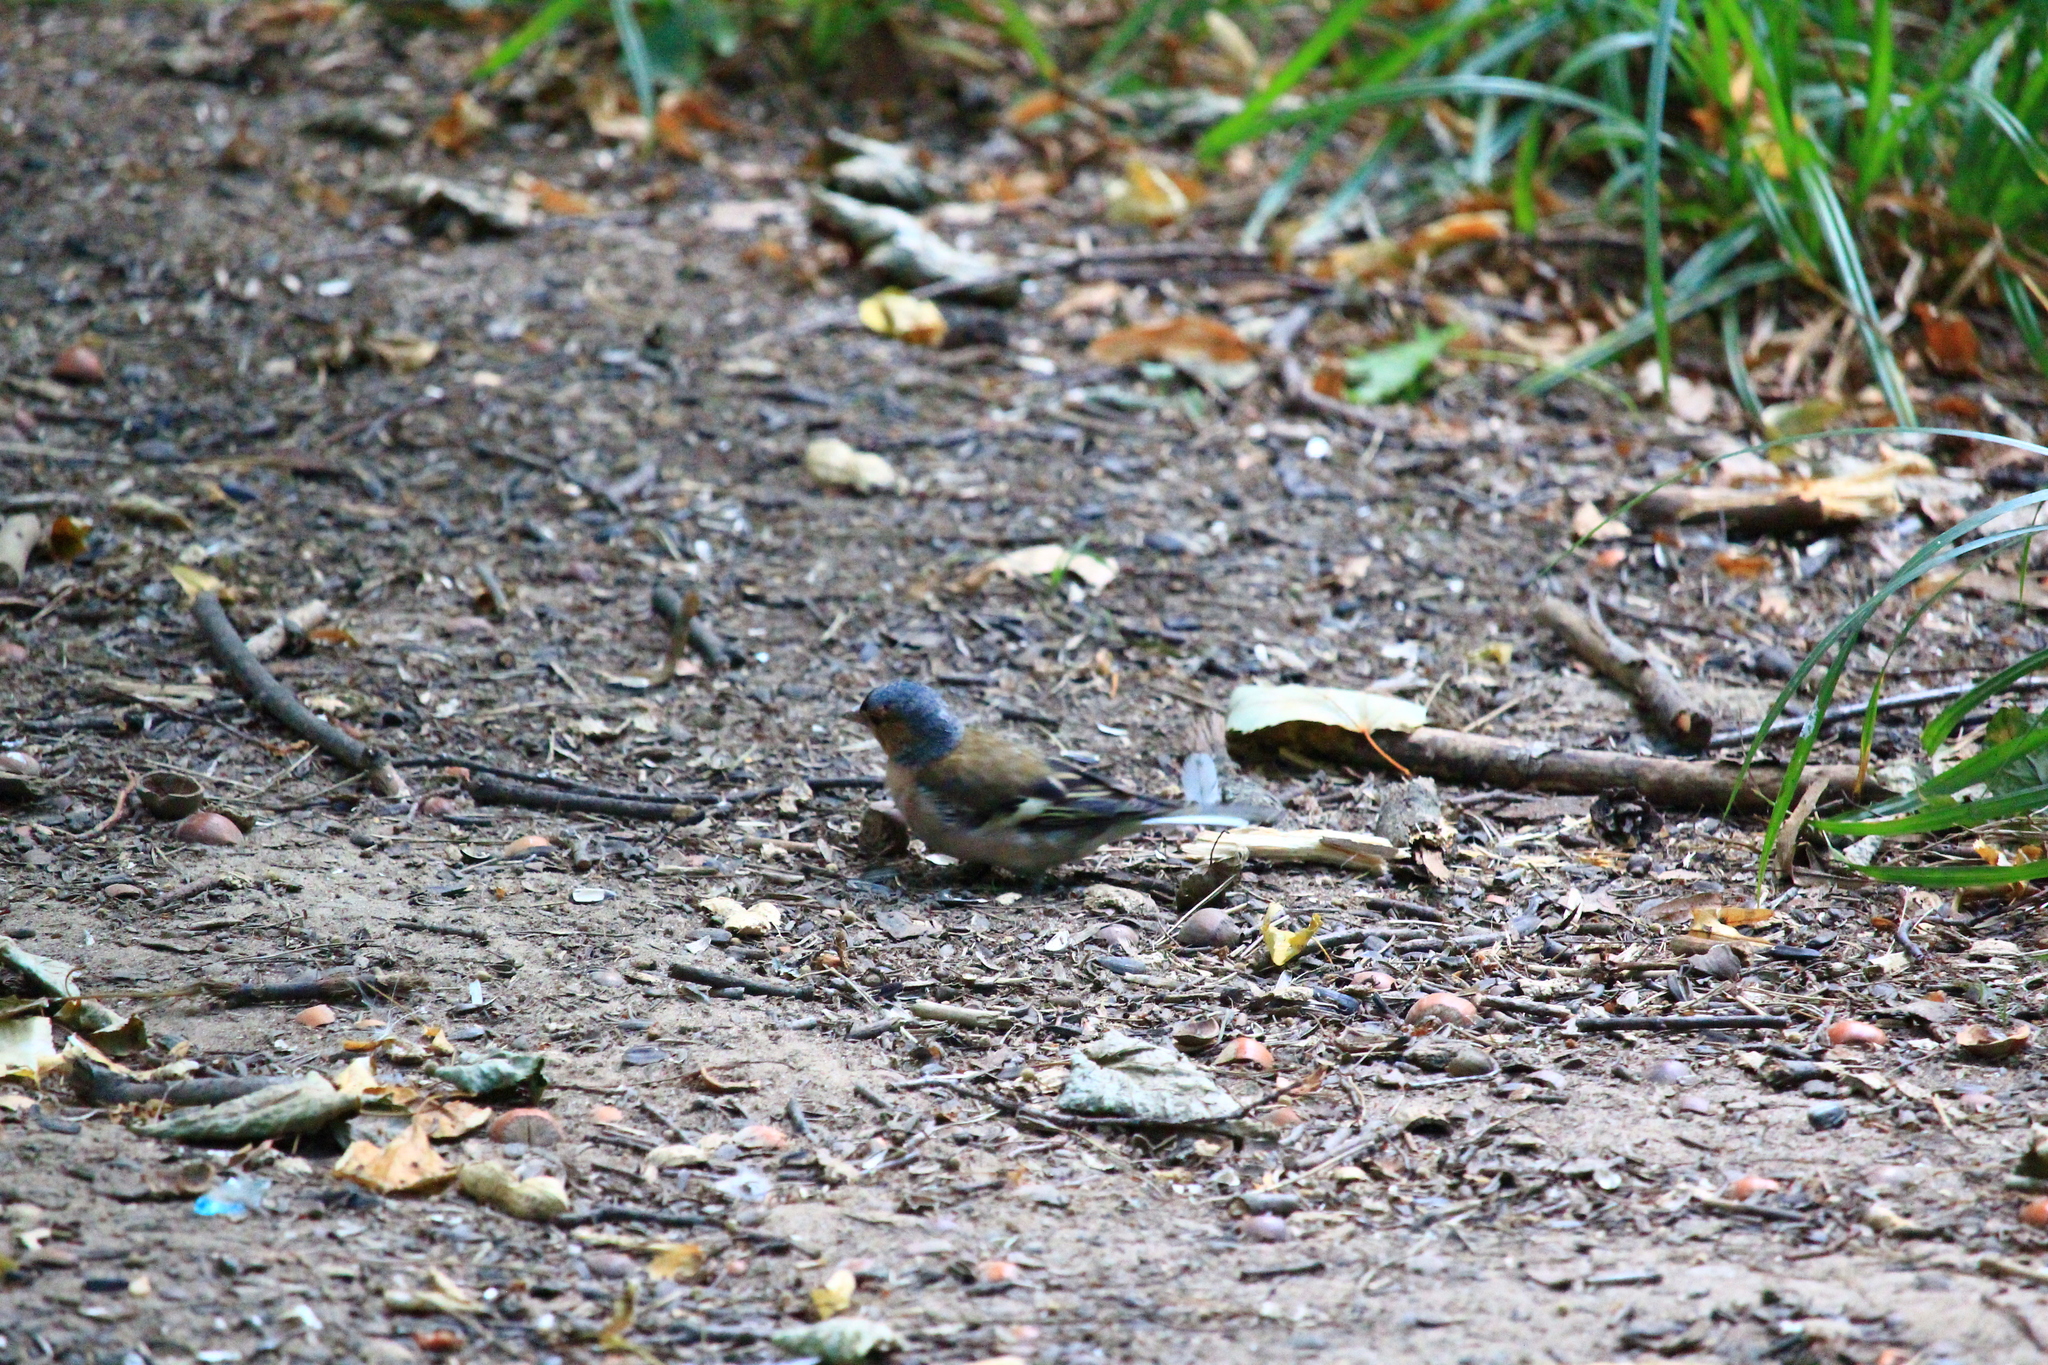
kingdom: Animalia
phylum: Chordata
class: Aves
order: Passeriformes
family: Fringillidae
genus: Fringilla
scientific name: Fringilla coelebs
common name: Common chaffinch
